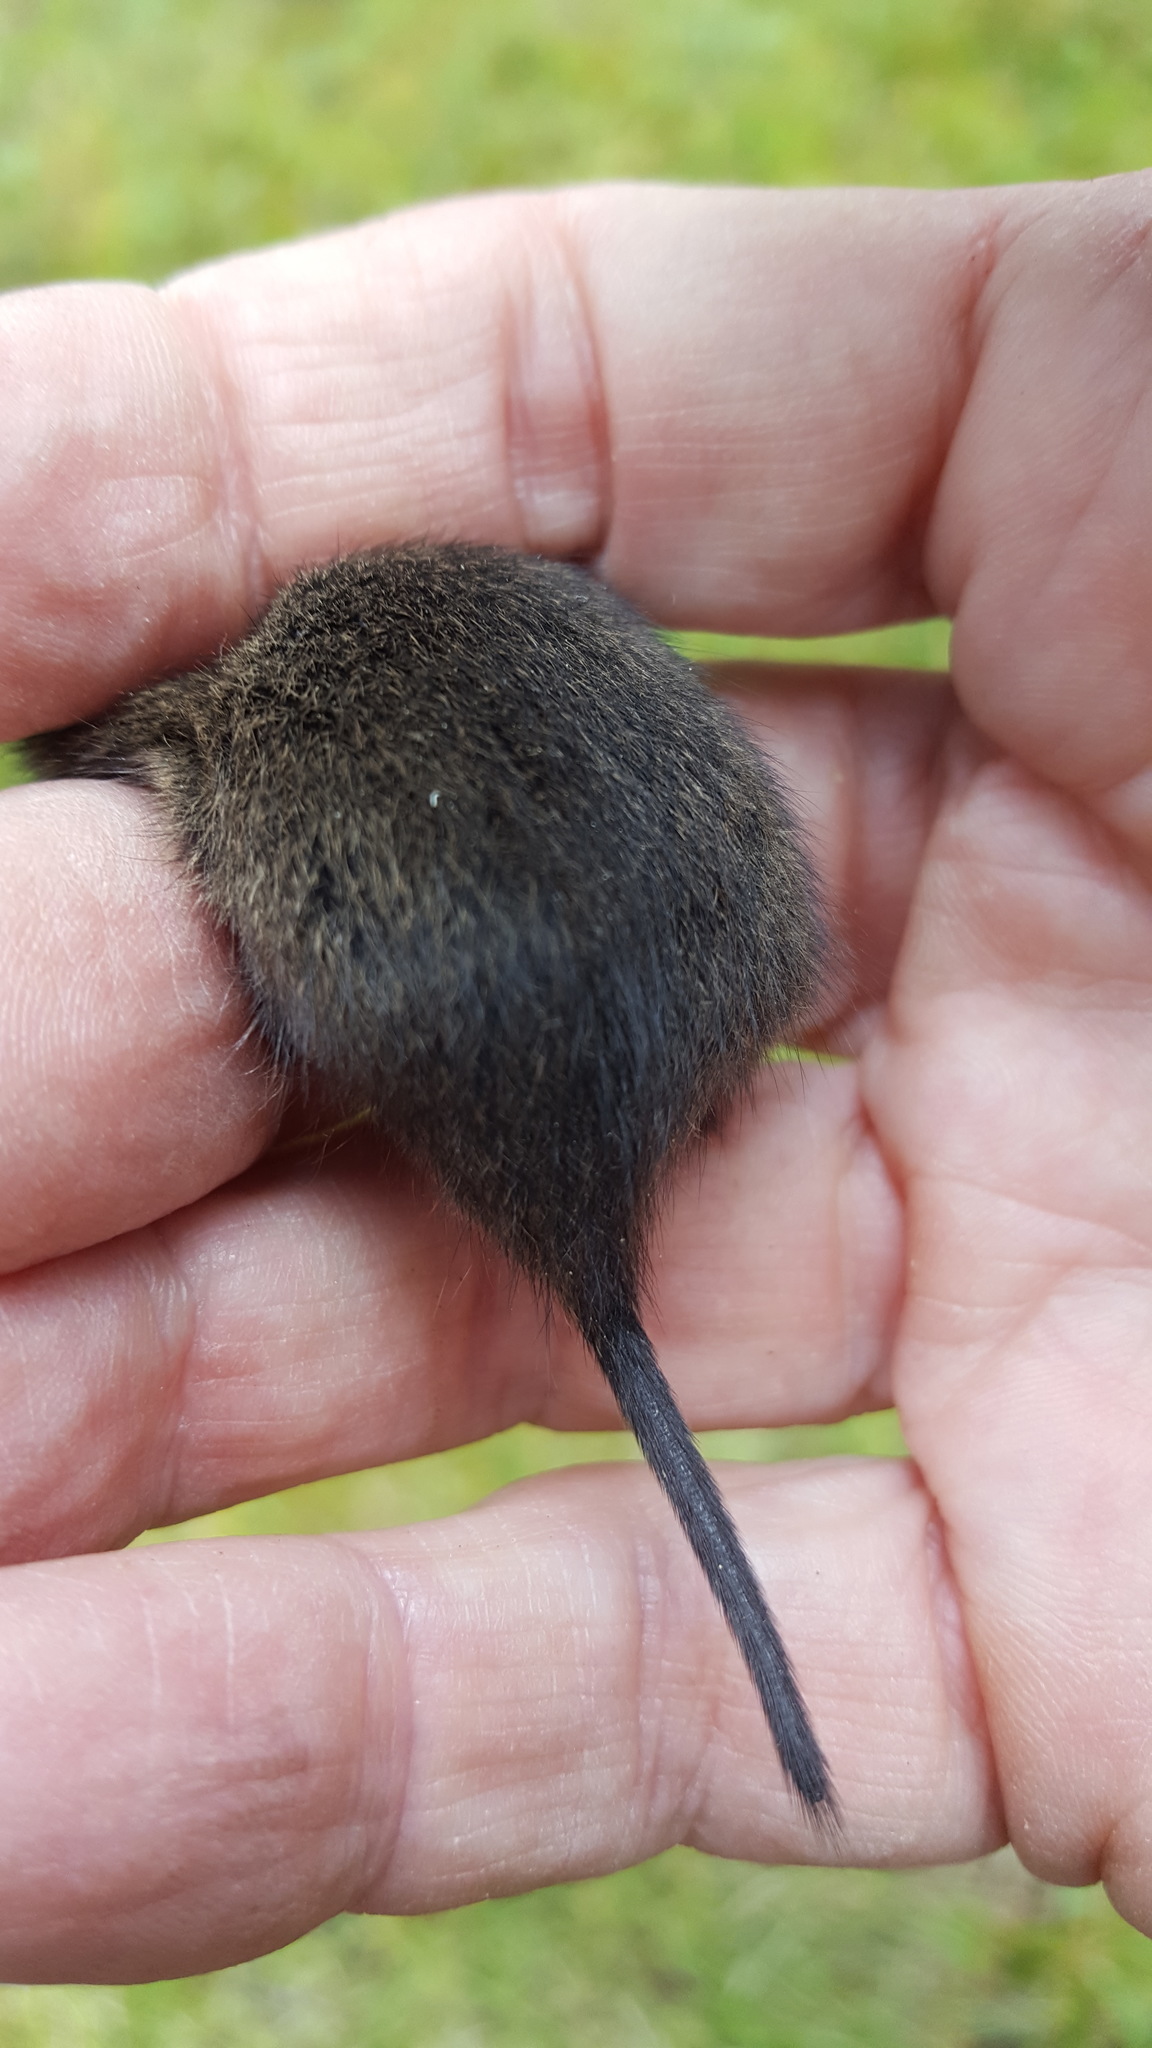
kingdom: Animalia
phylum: Chordata
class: Mammalia
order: Rodentia
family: Cricetidae
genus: Microtus
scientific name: Microtus pennsylvanicus
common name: Meadow vole
